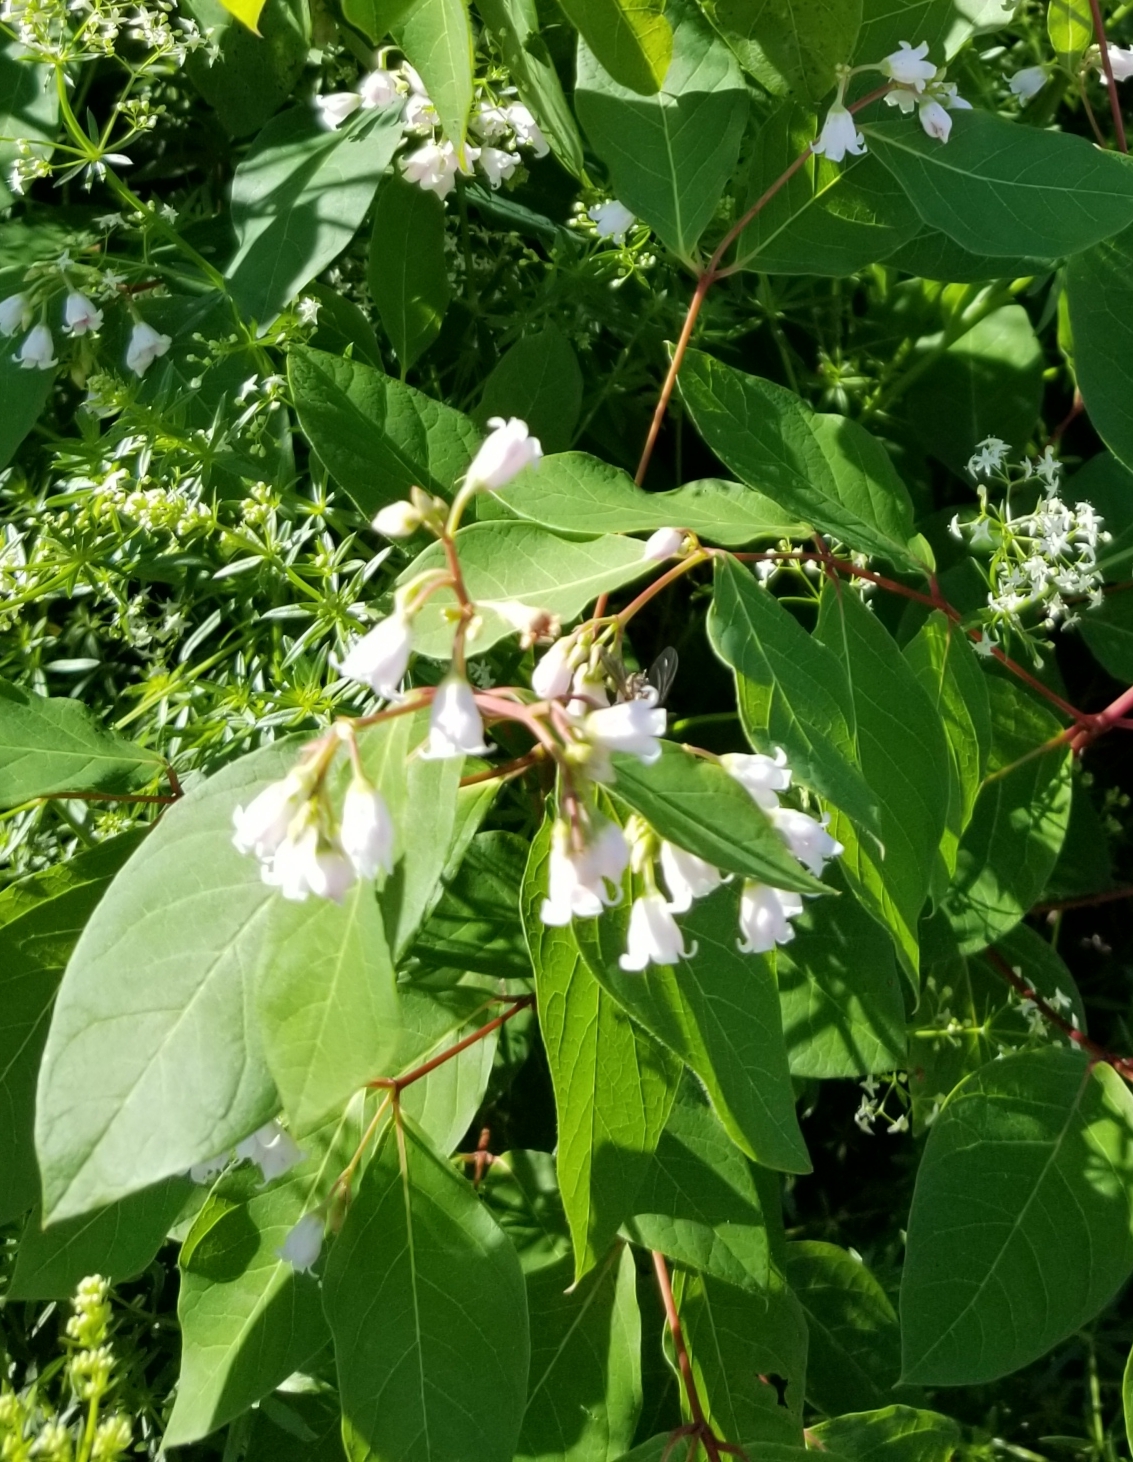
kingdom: Plantae
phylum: Tracheophyta
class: Magnoliopsida
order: Gentianales
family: Apocynaceae
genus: Apocynum
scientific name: Apocynum androsaemifolium
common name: Spreading dogbane
